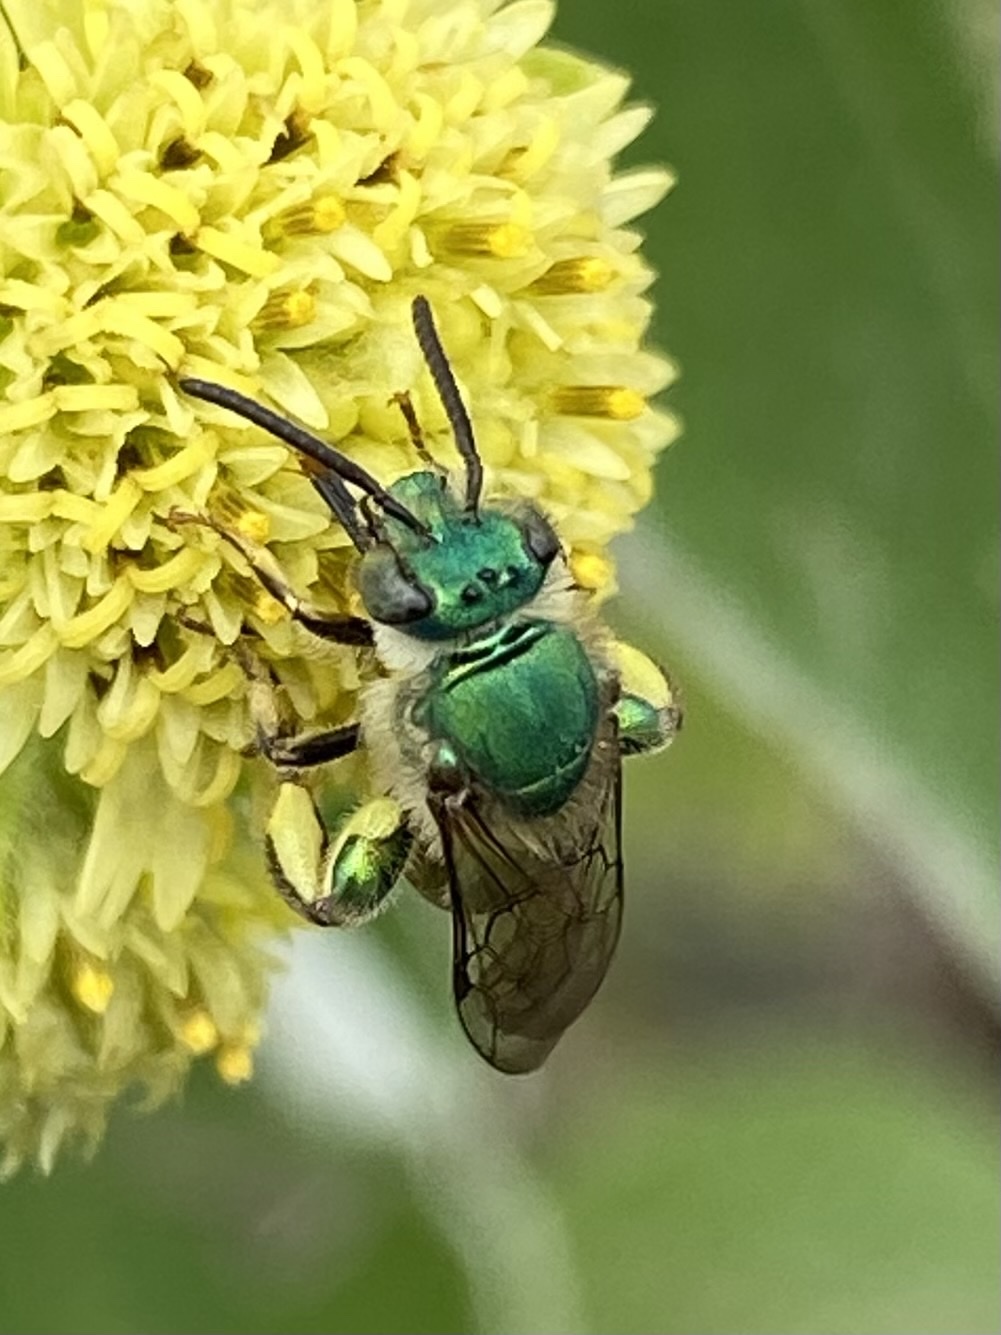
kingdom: Animalia
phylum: Arthropoda
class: Insecta
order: Hymenoptera
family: Halictidae
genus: Paragapostemon
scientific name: Paragapostemon coelestinus
